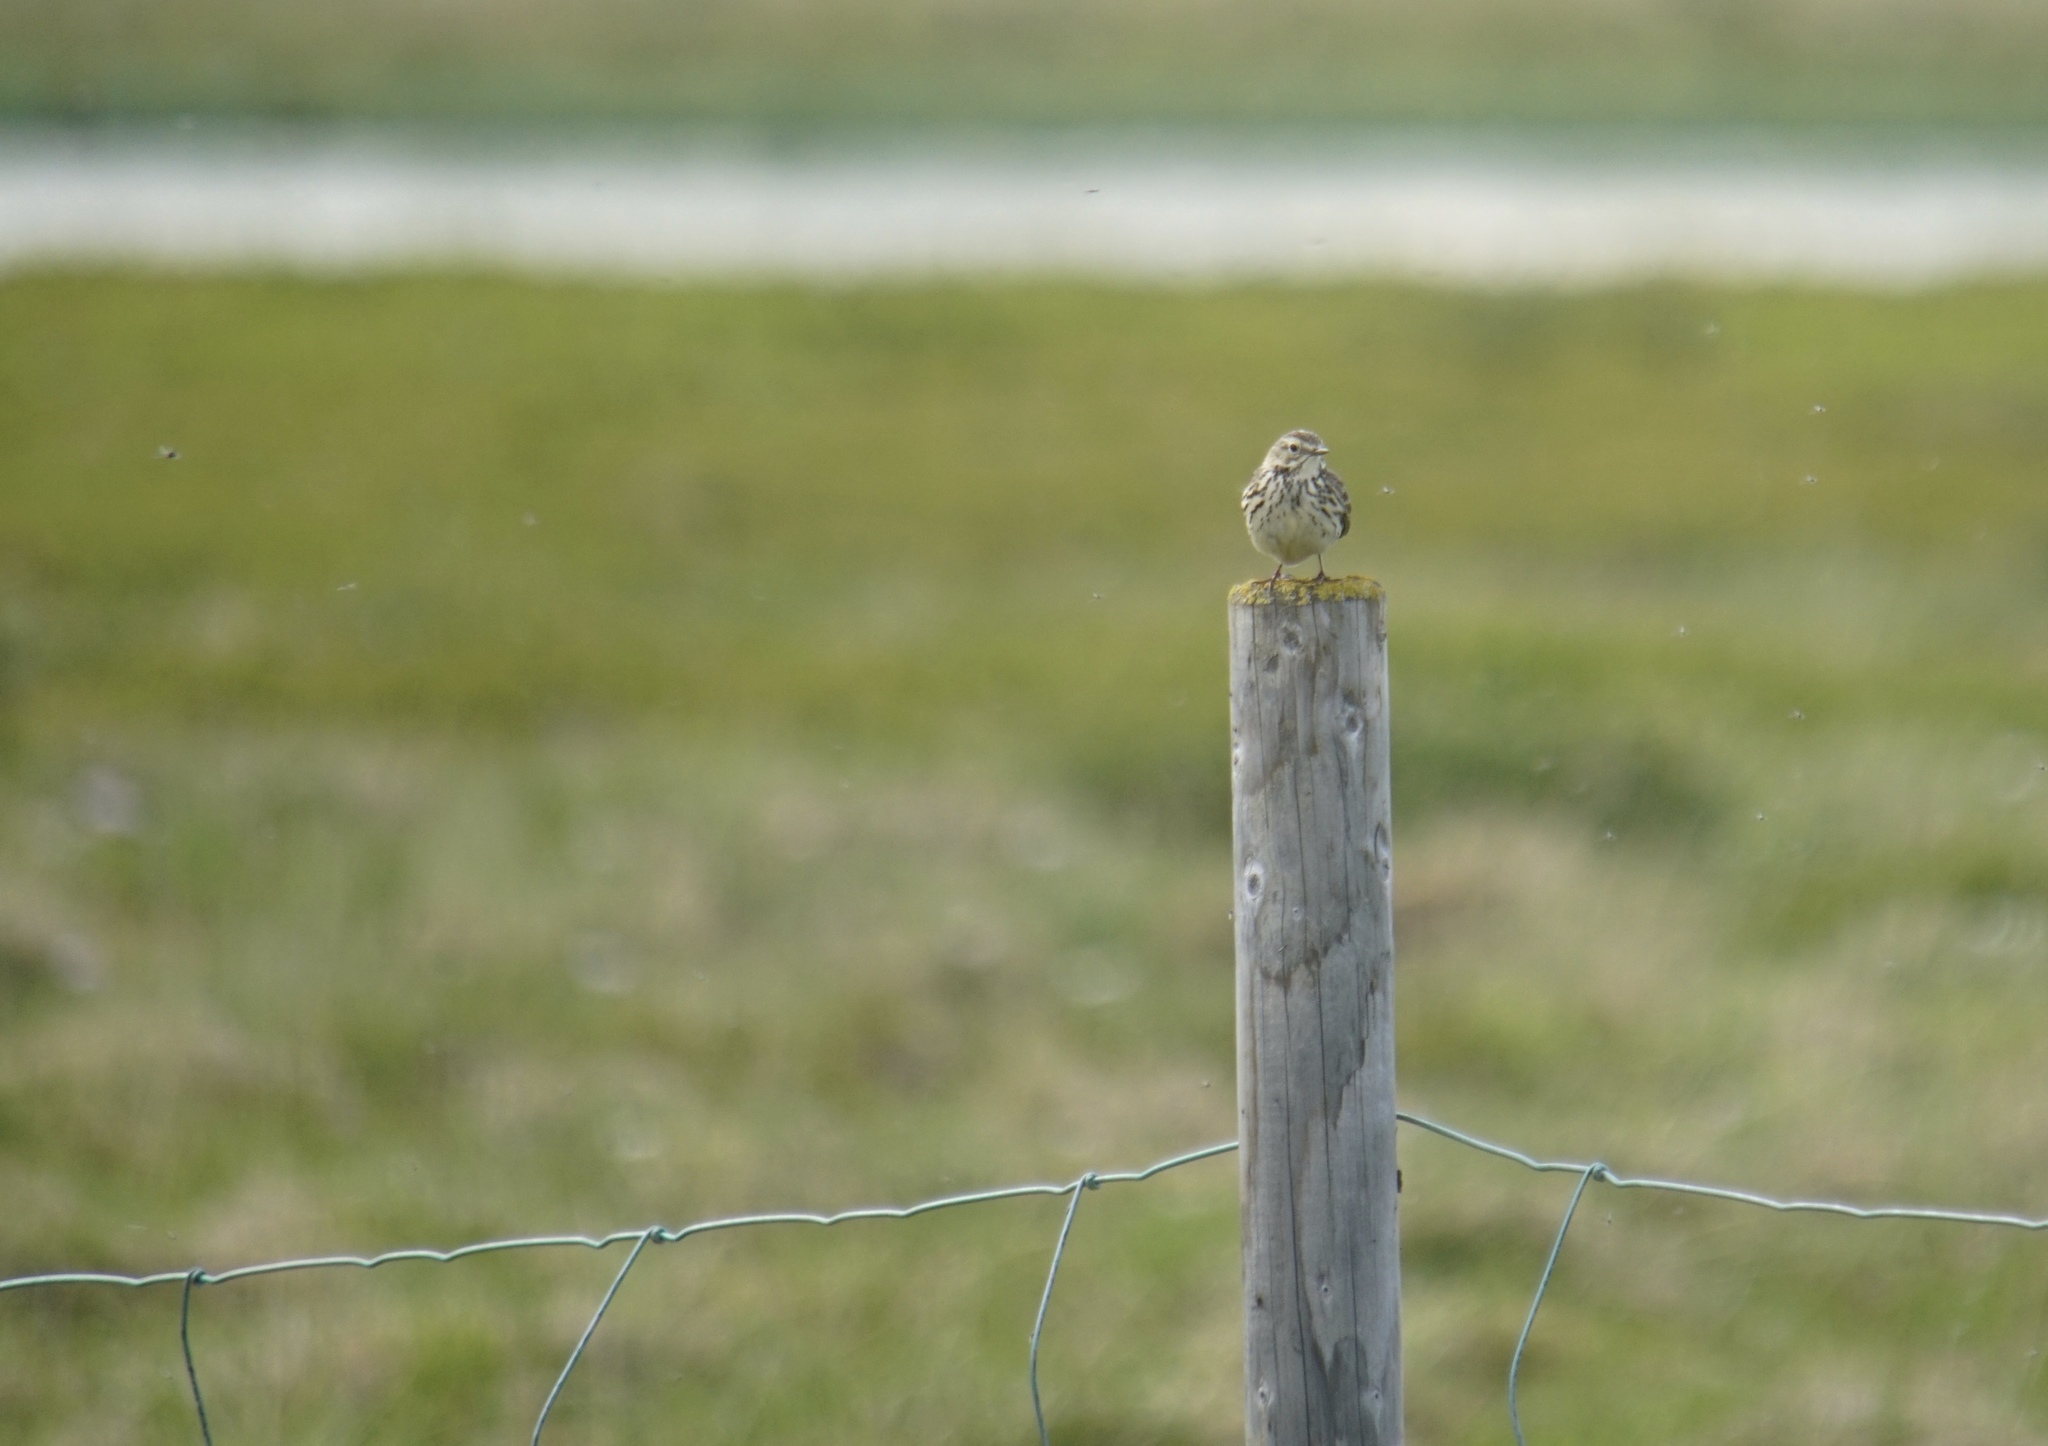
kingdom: Animalia
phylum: Chordata
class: Aves
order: Passeriformes
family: Motacillidae
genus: Anthus
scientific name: Anthus pratensis
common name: Meadow pipit
